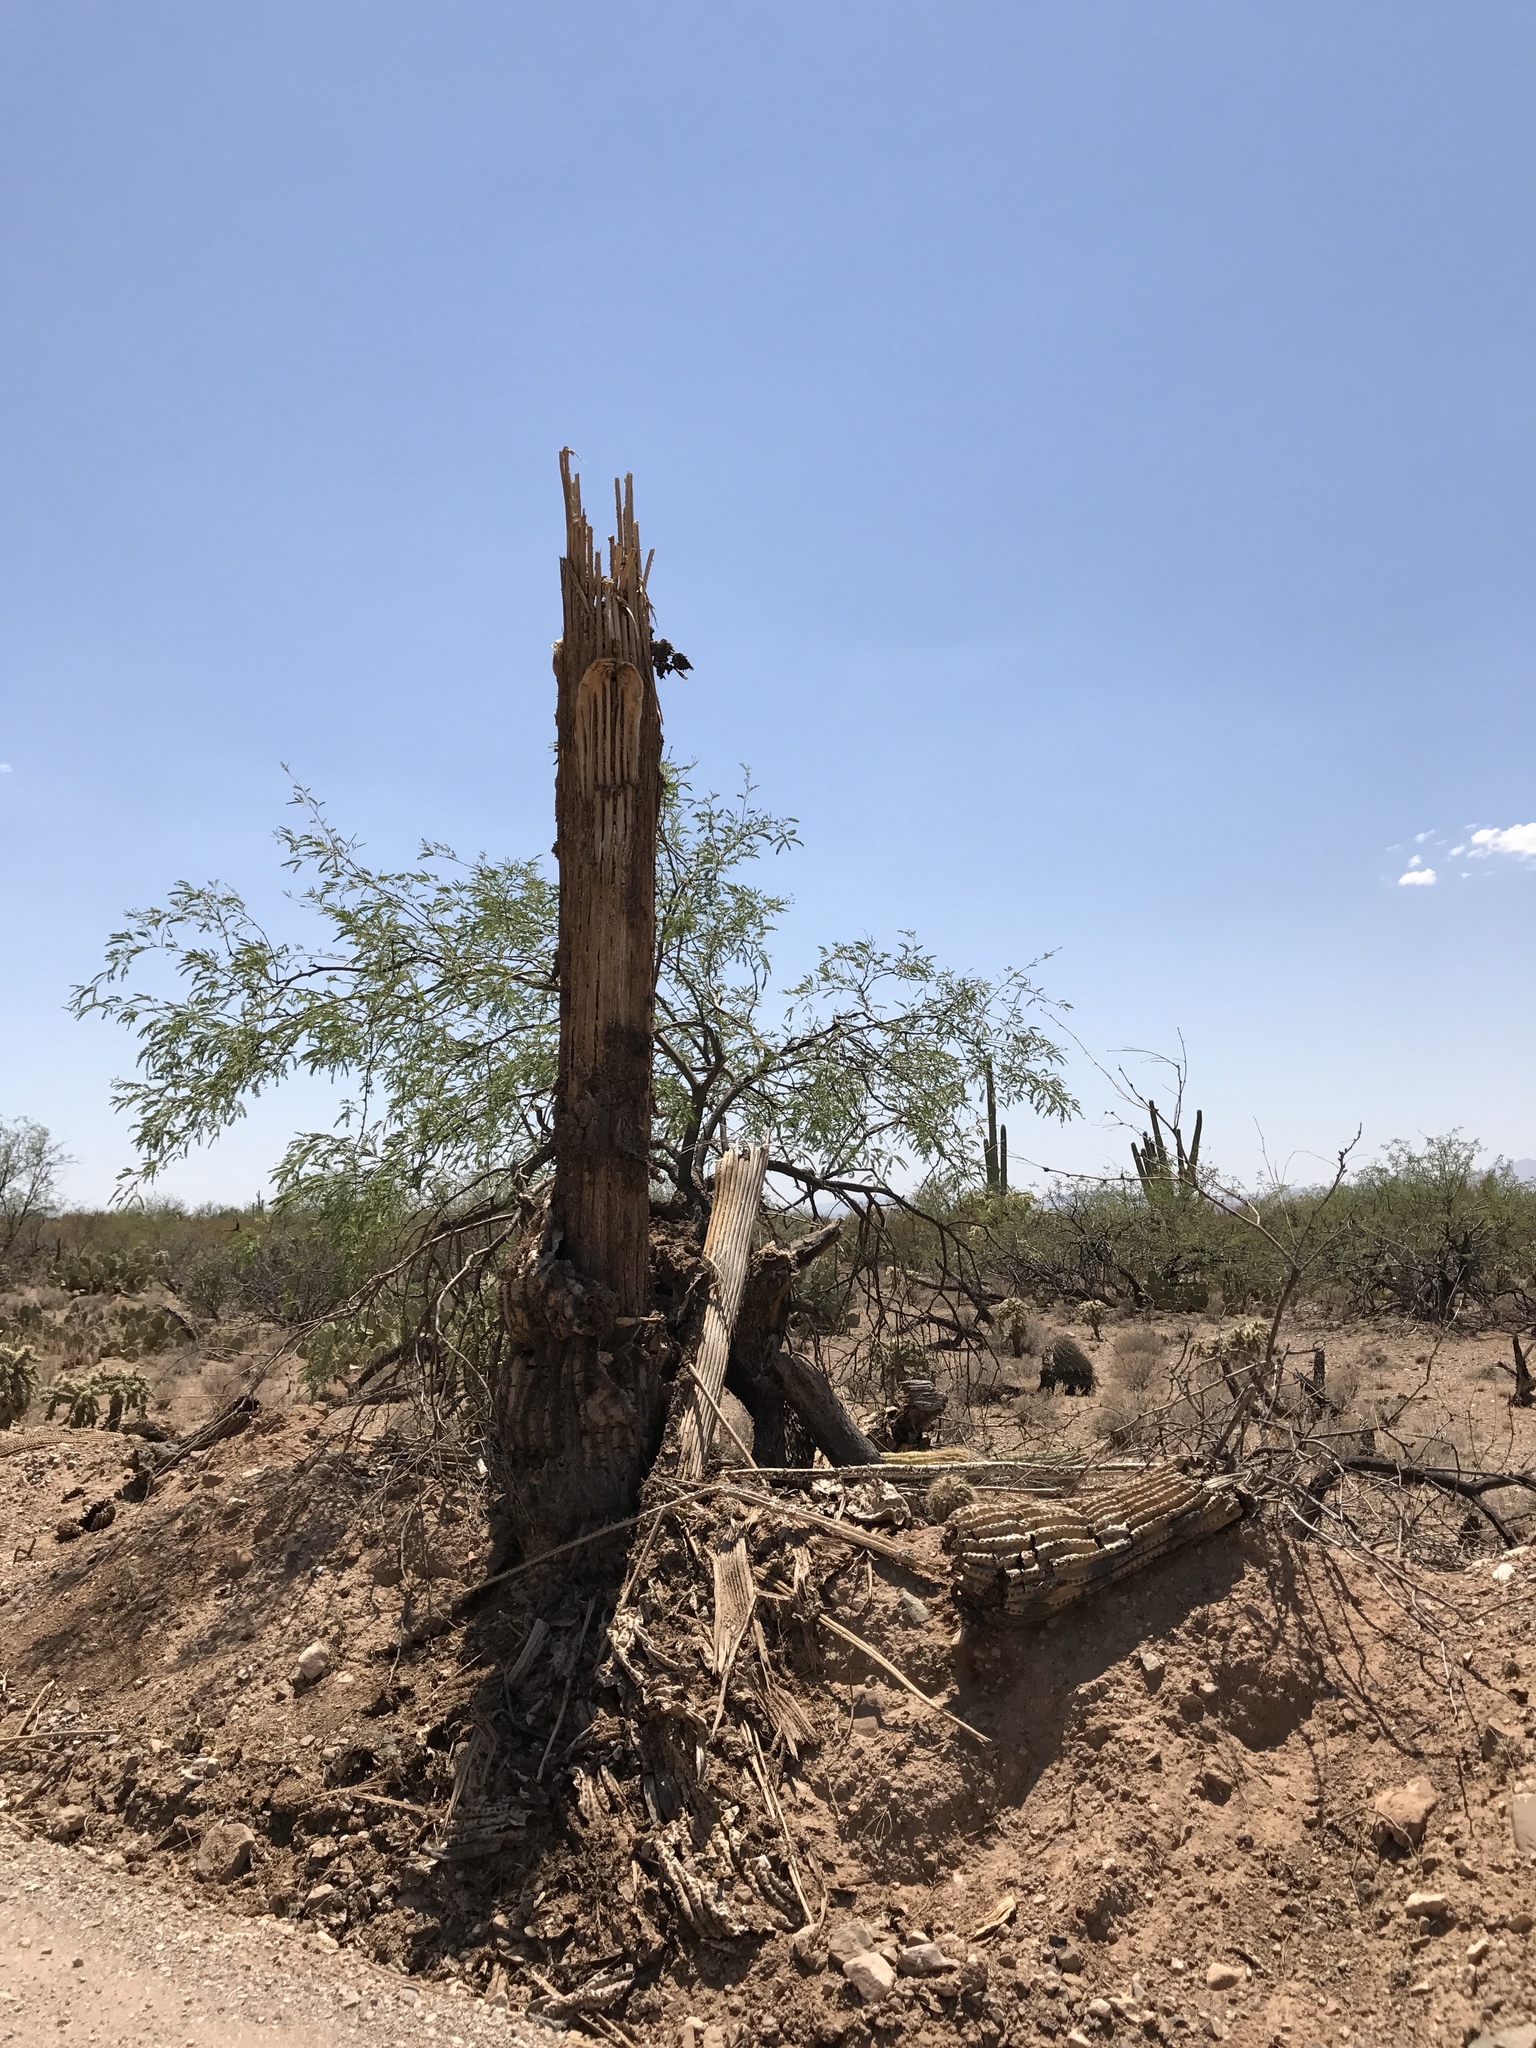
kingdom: Plantae
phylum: Tracheophyta
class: Magnoliopsida
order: Caryophyllales
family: Cactaceae
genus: Carnegiea
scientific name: Carnegiea gigantea
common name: Saguaro
